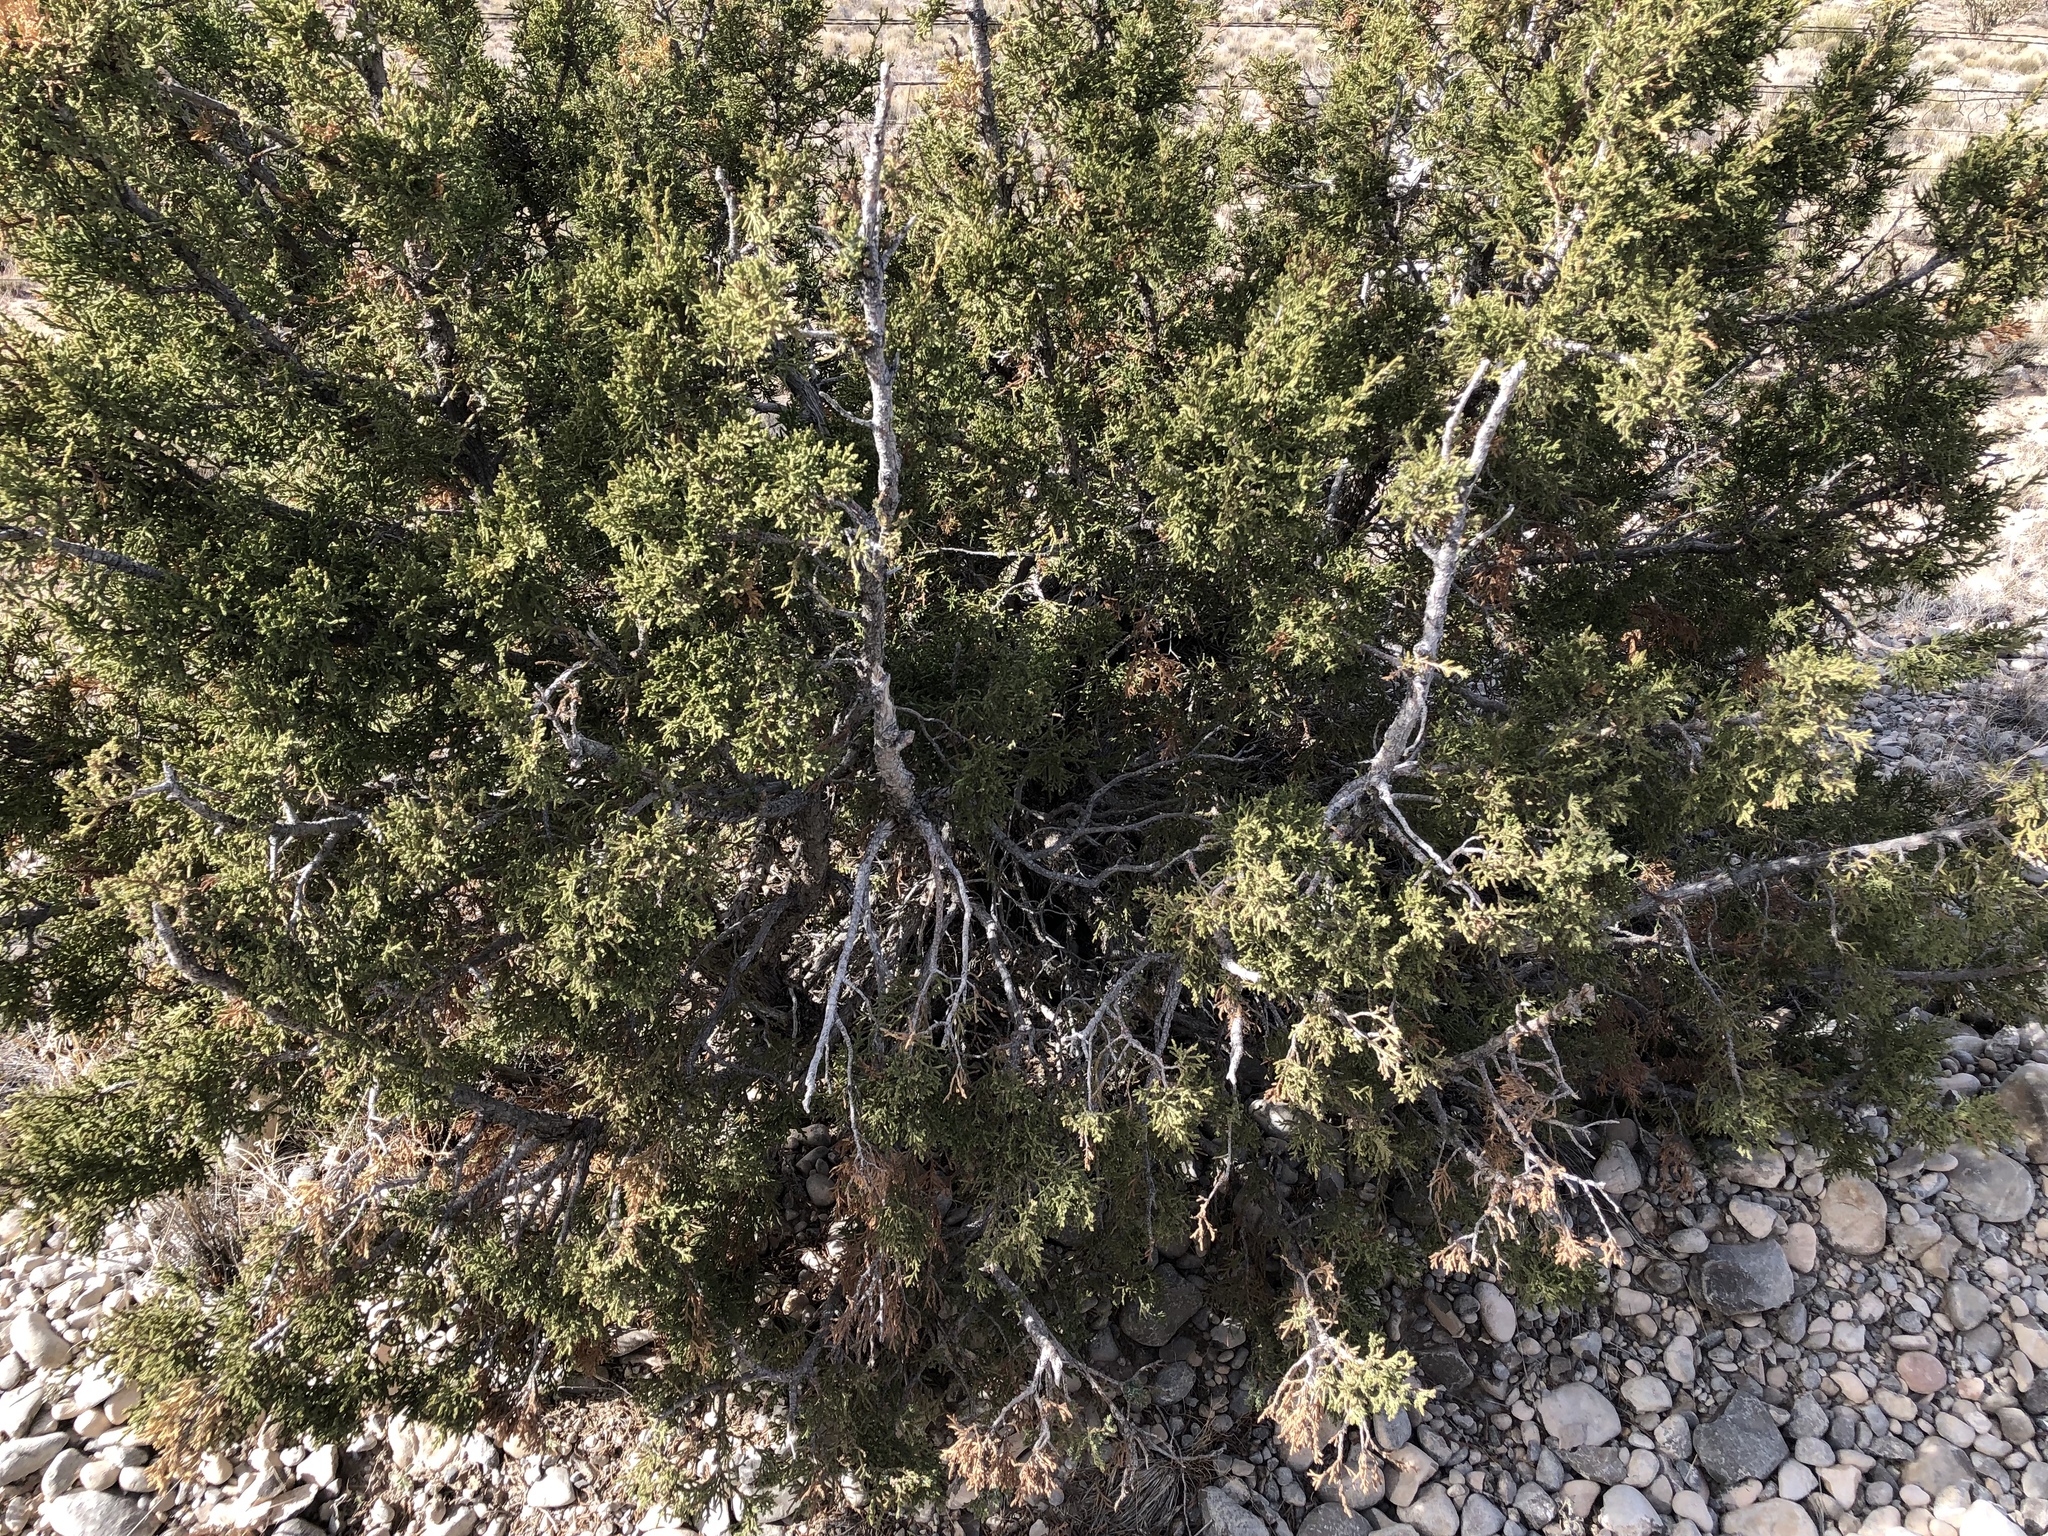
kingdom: Plantae
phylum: Tracheophyta
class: Pinopsida
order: Pinales
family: Cupressaceae
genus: Juniperus
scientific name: Juniperus monosperma
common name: One-seed juniper
